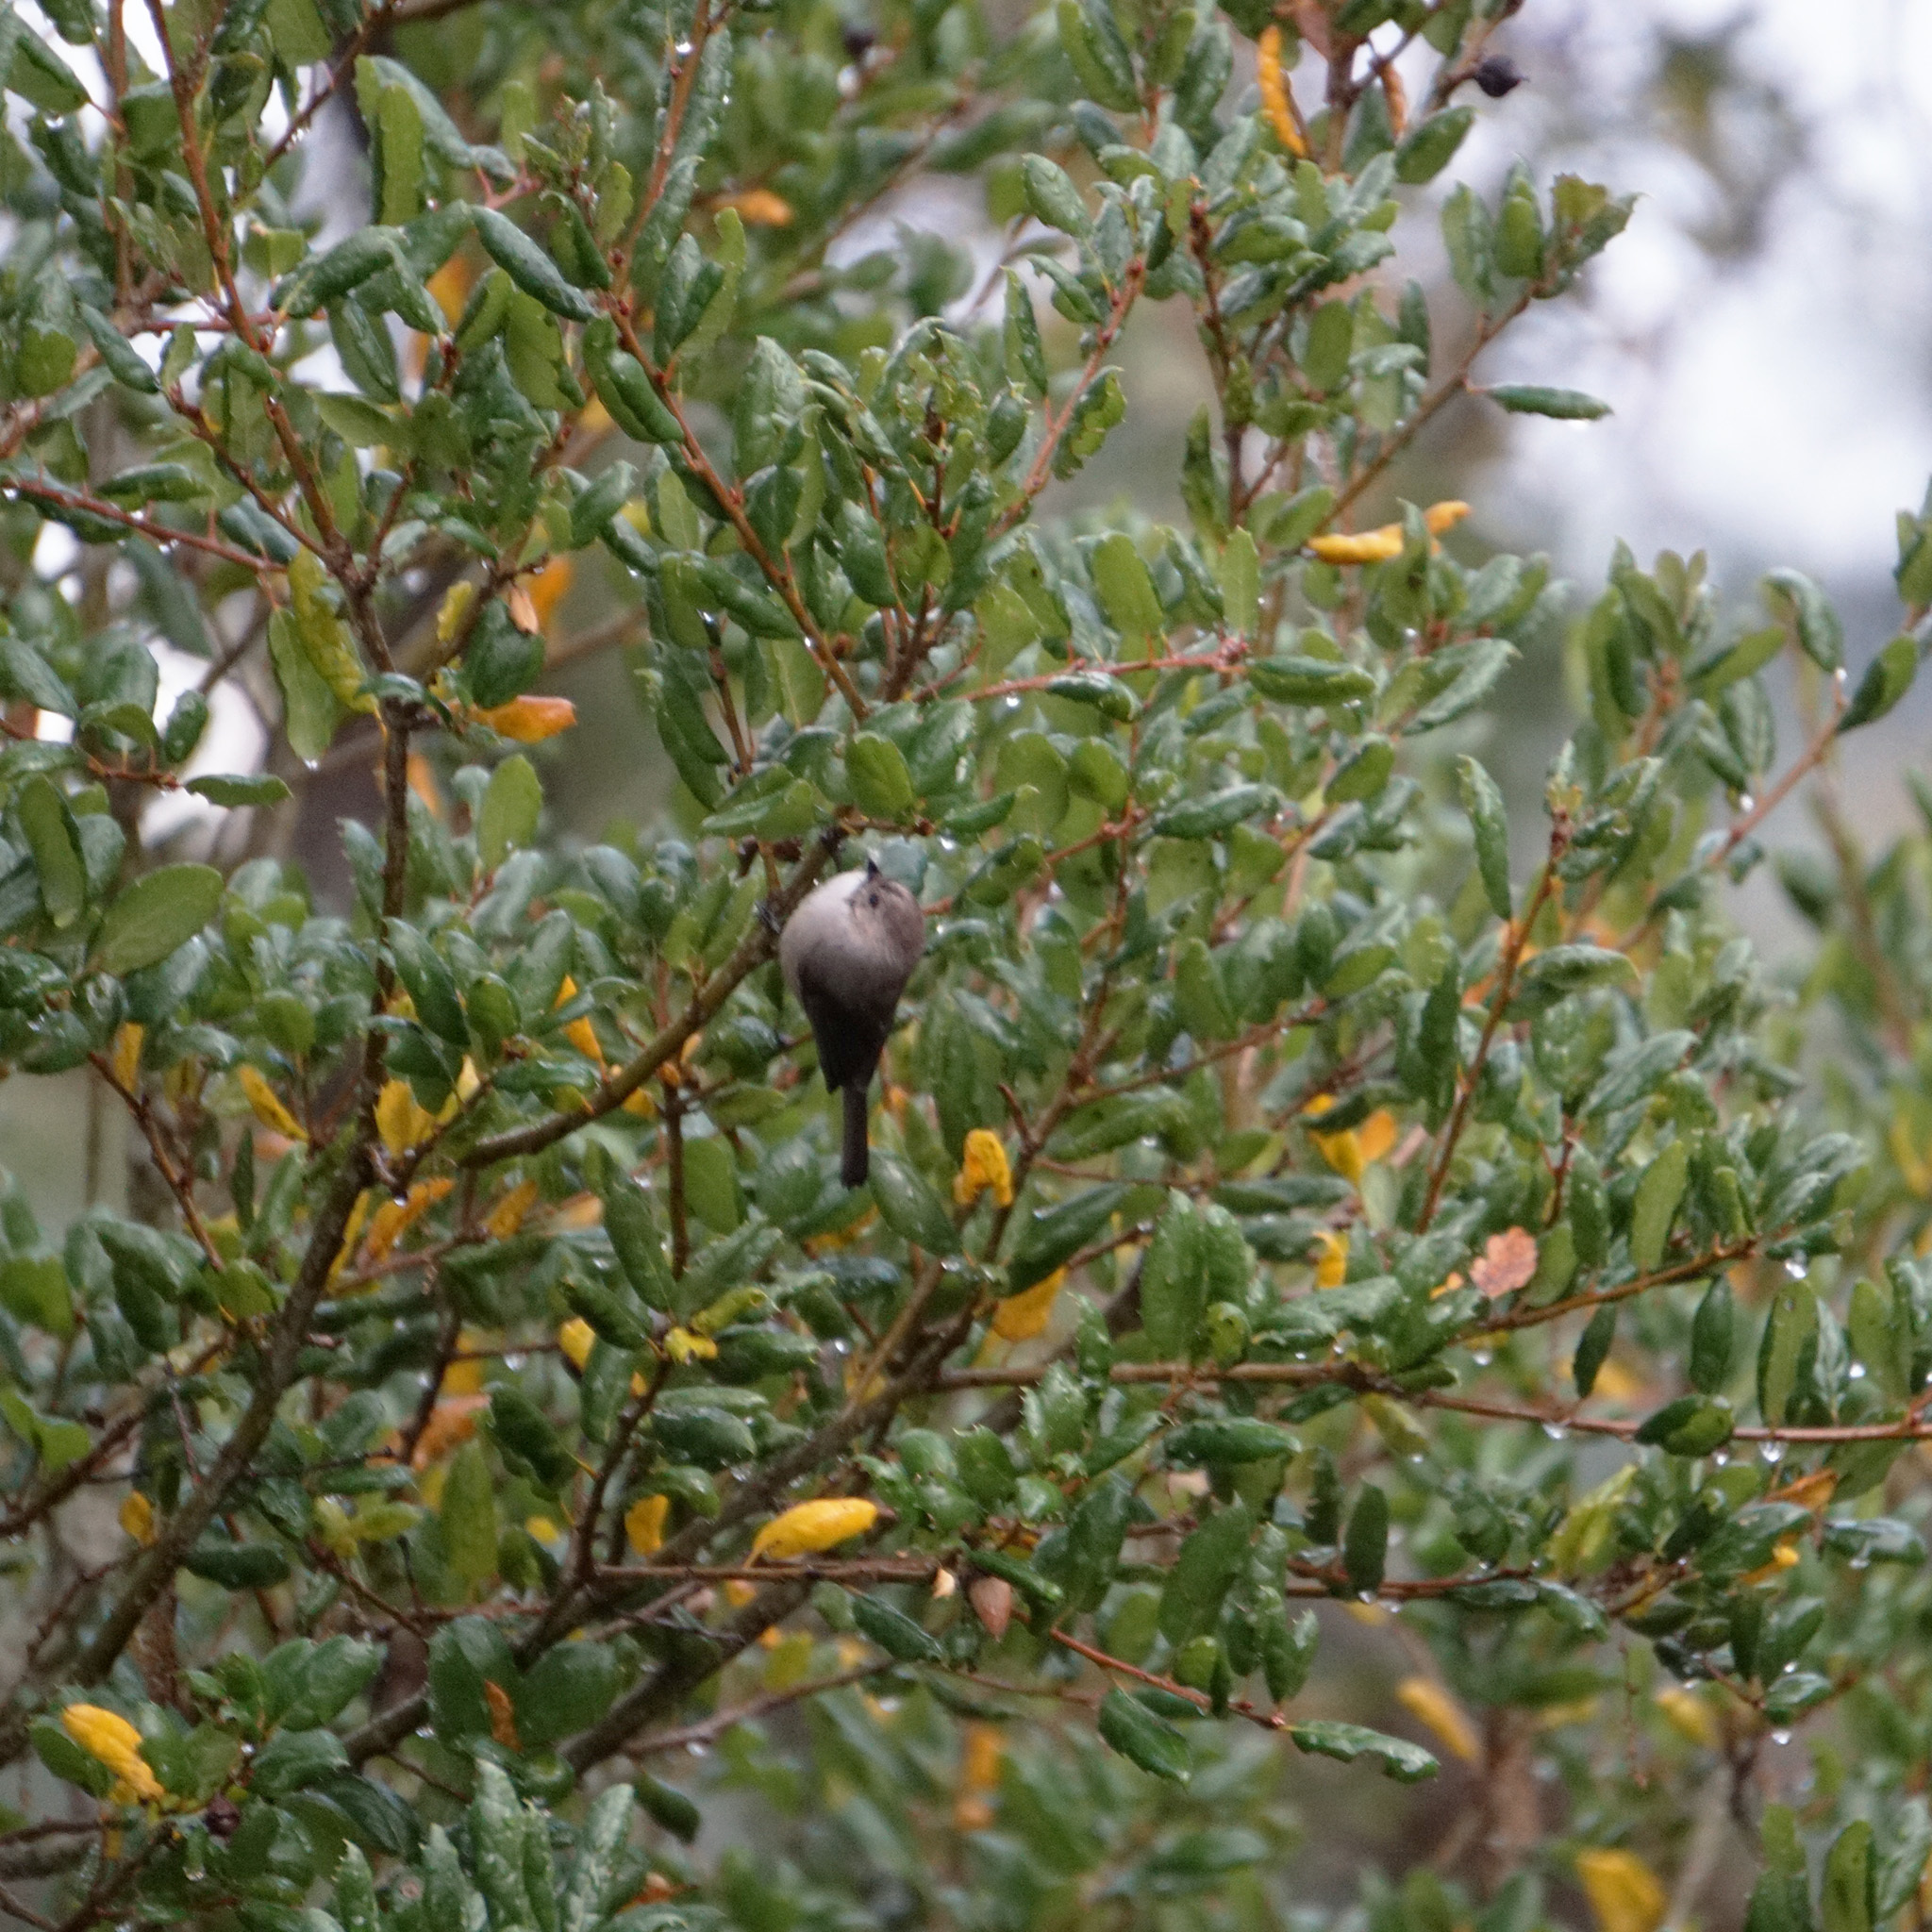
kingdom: Animalia
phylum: Chordata
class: Aves
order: Passeriformes
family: Aegithalidae
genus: Psaltriparus
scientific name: Psaltriparus minimus
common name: American bushtit
